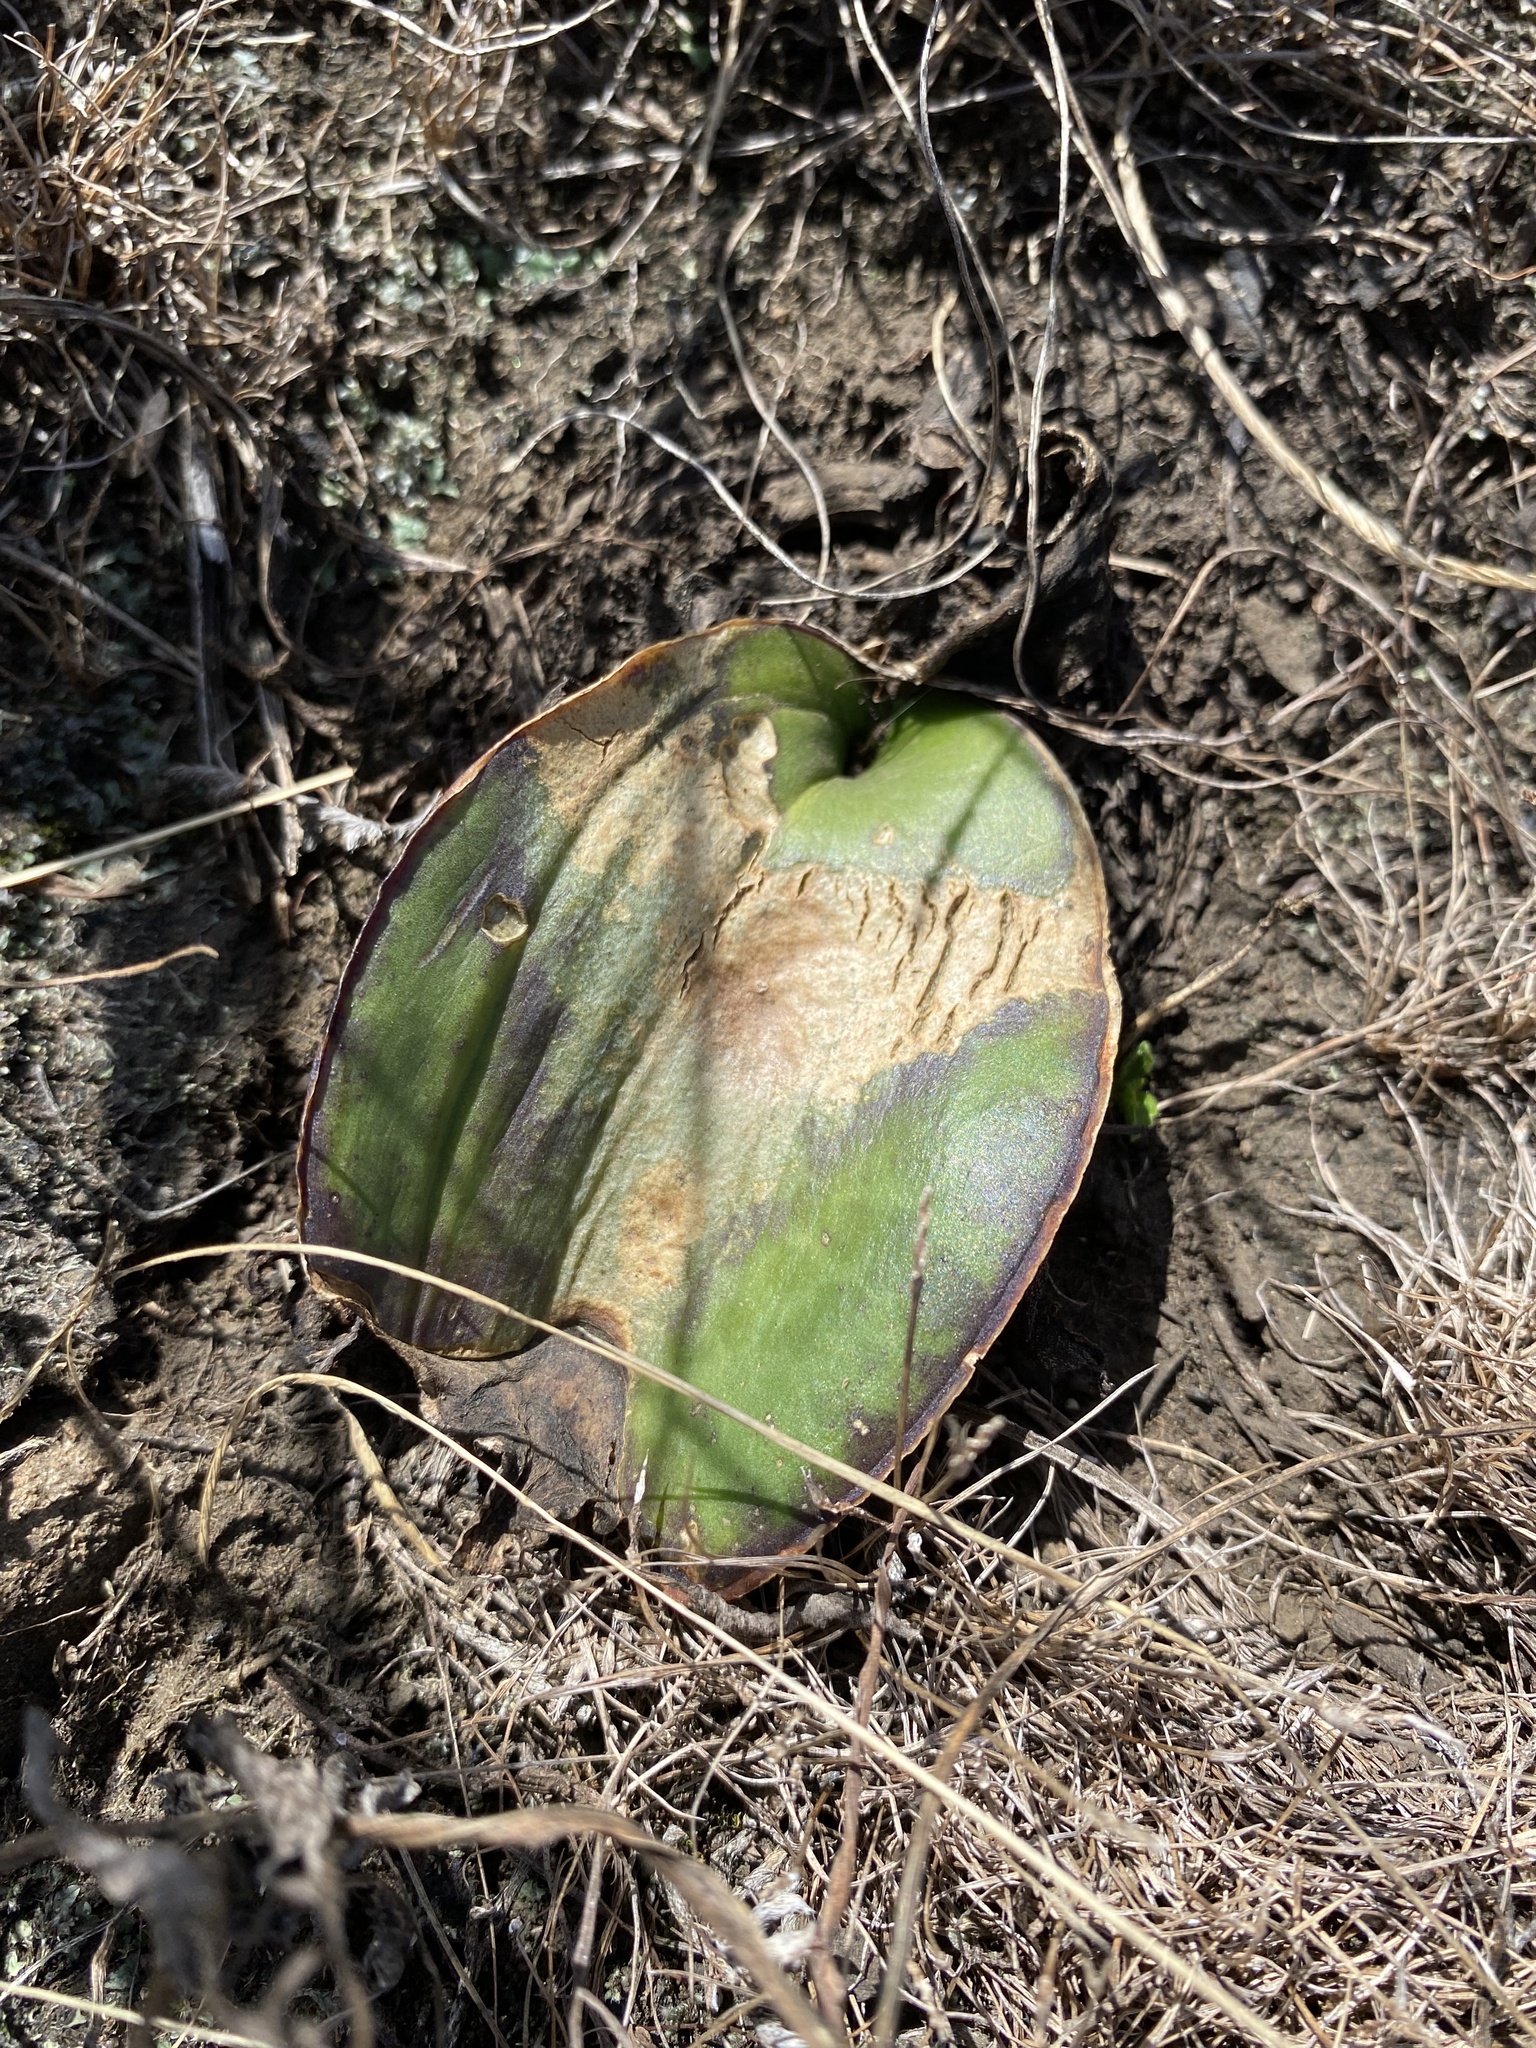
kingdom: Plantae
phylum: Tracheophyta
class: Liliopsida
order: Asparagales
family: Asparagaceae
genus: Dracaena
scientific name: Dracaena hyacinthoides
